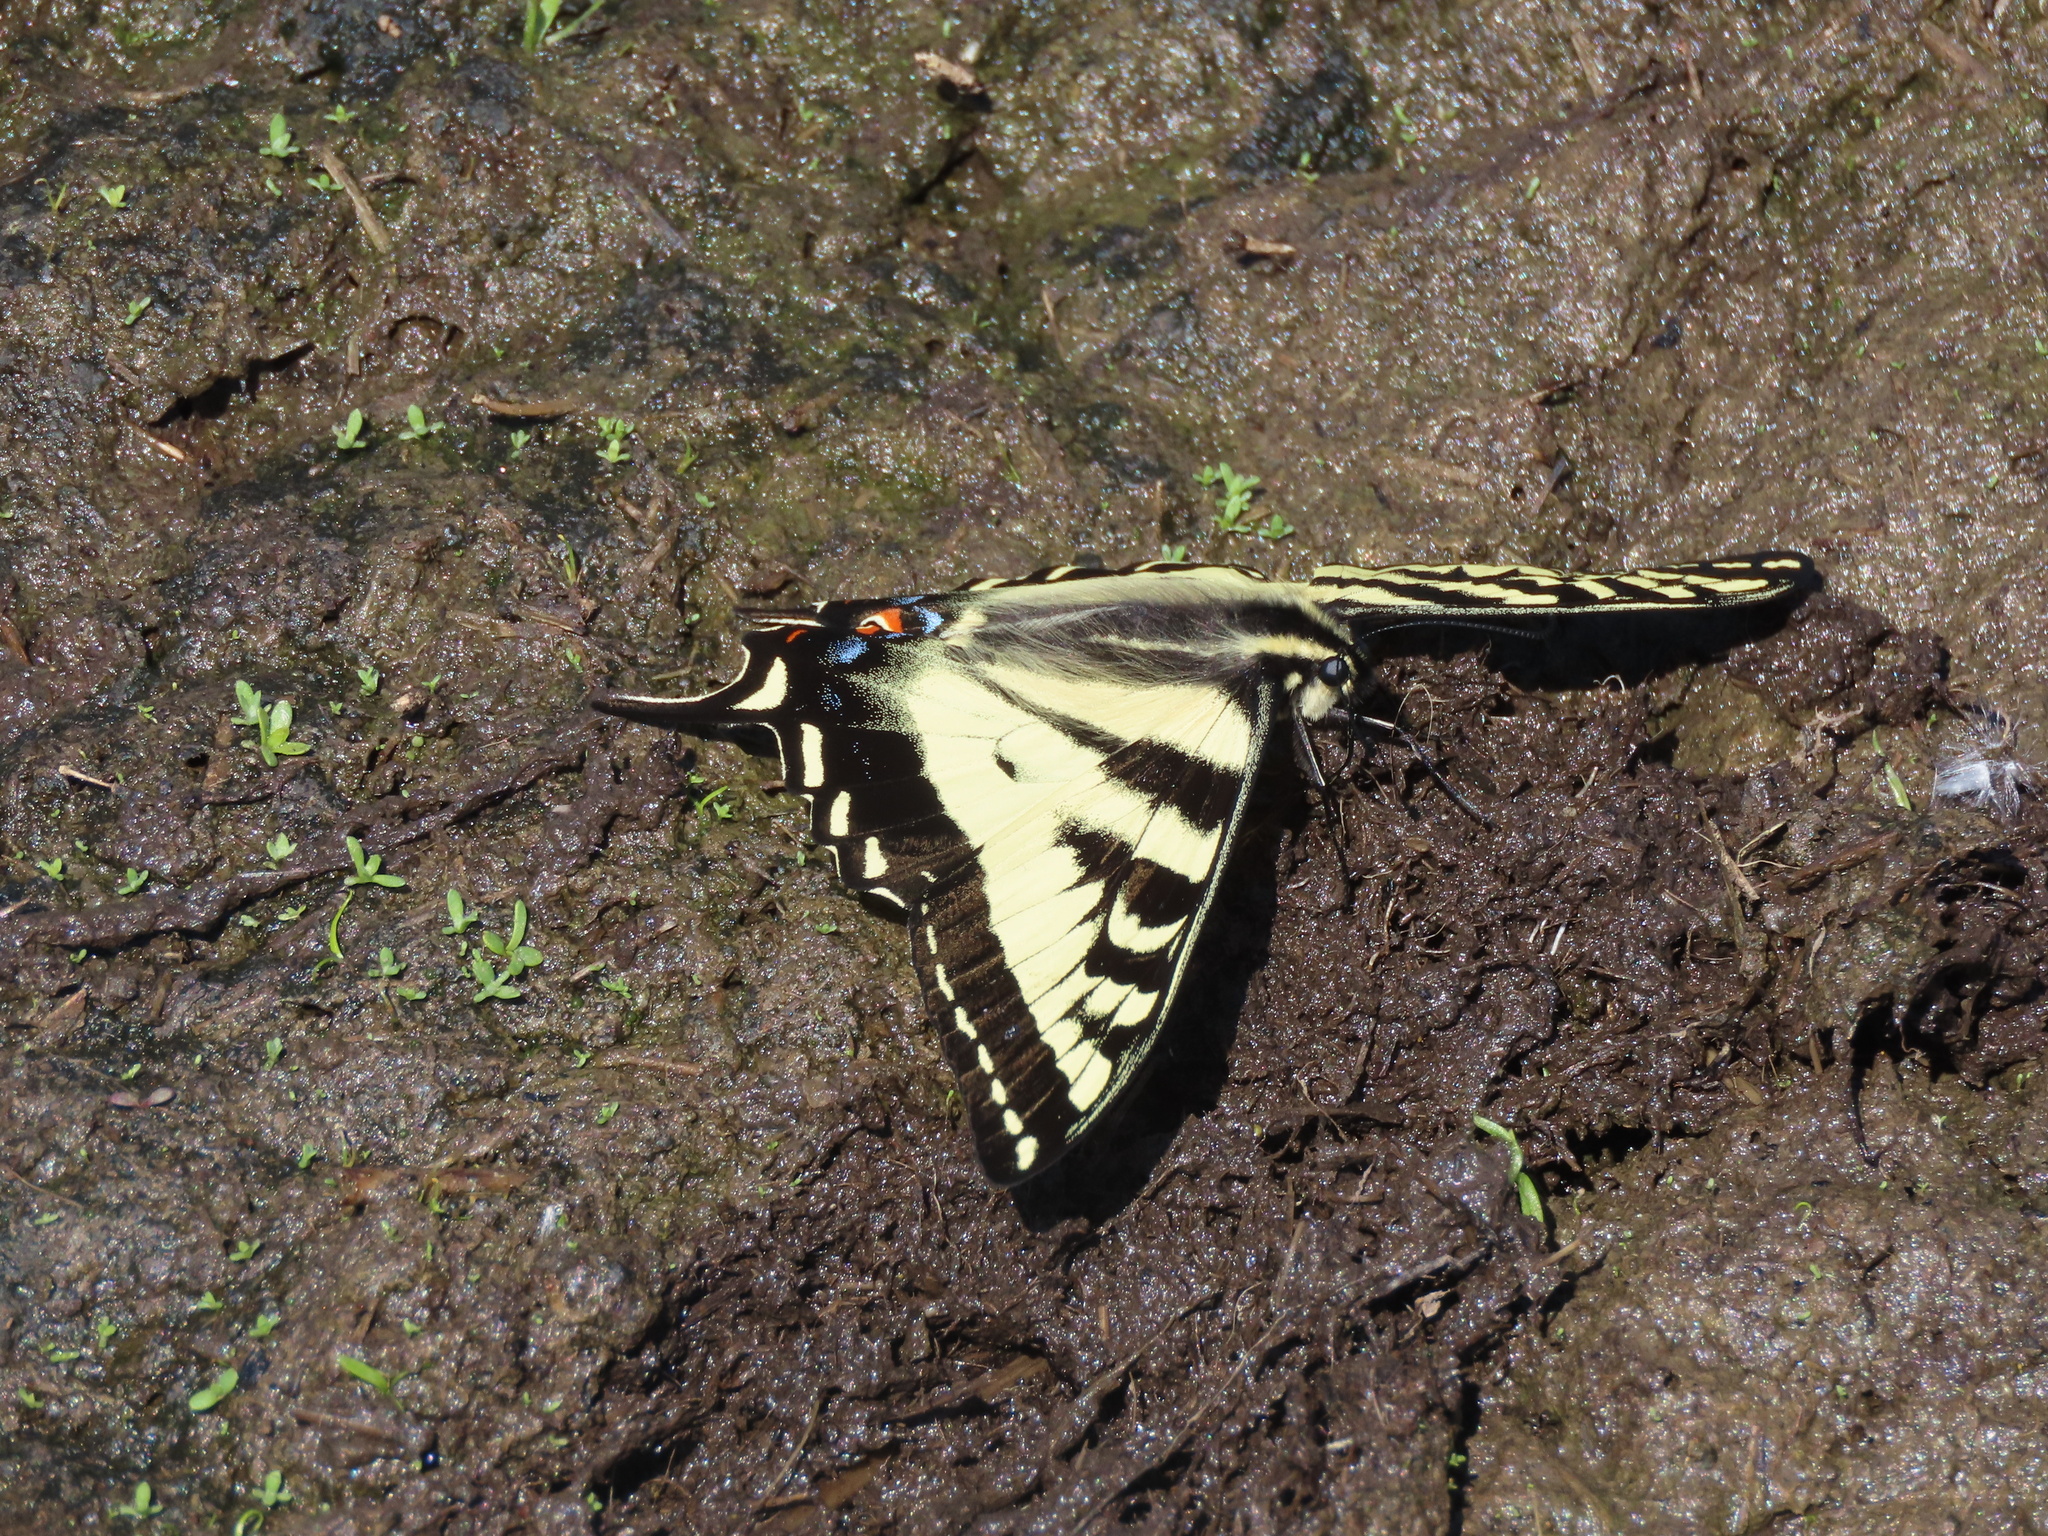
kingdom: Animalia
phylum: Arthropoda
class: Insecta
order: Lepidoptera
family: Papilionidae
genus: Papilio
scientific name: Papilio rutulus
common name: Western tiger swallowtail
